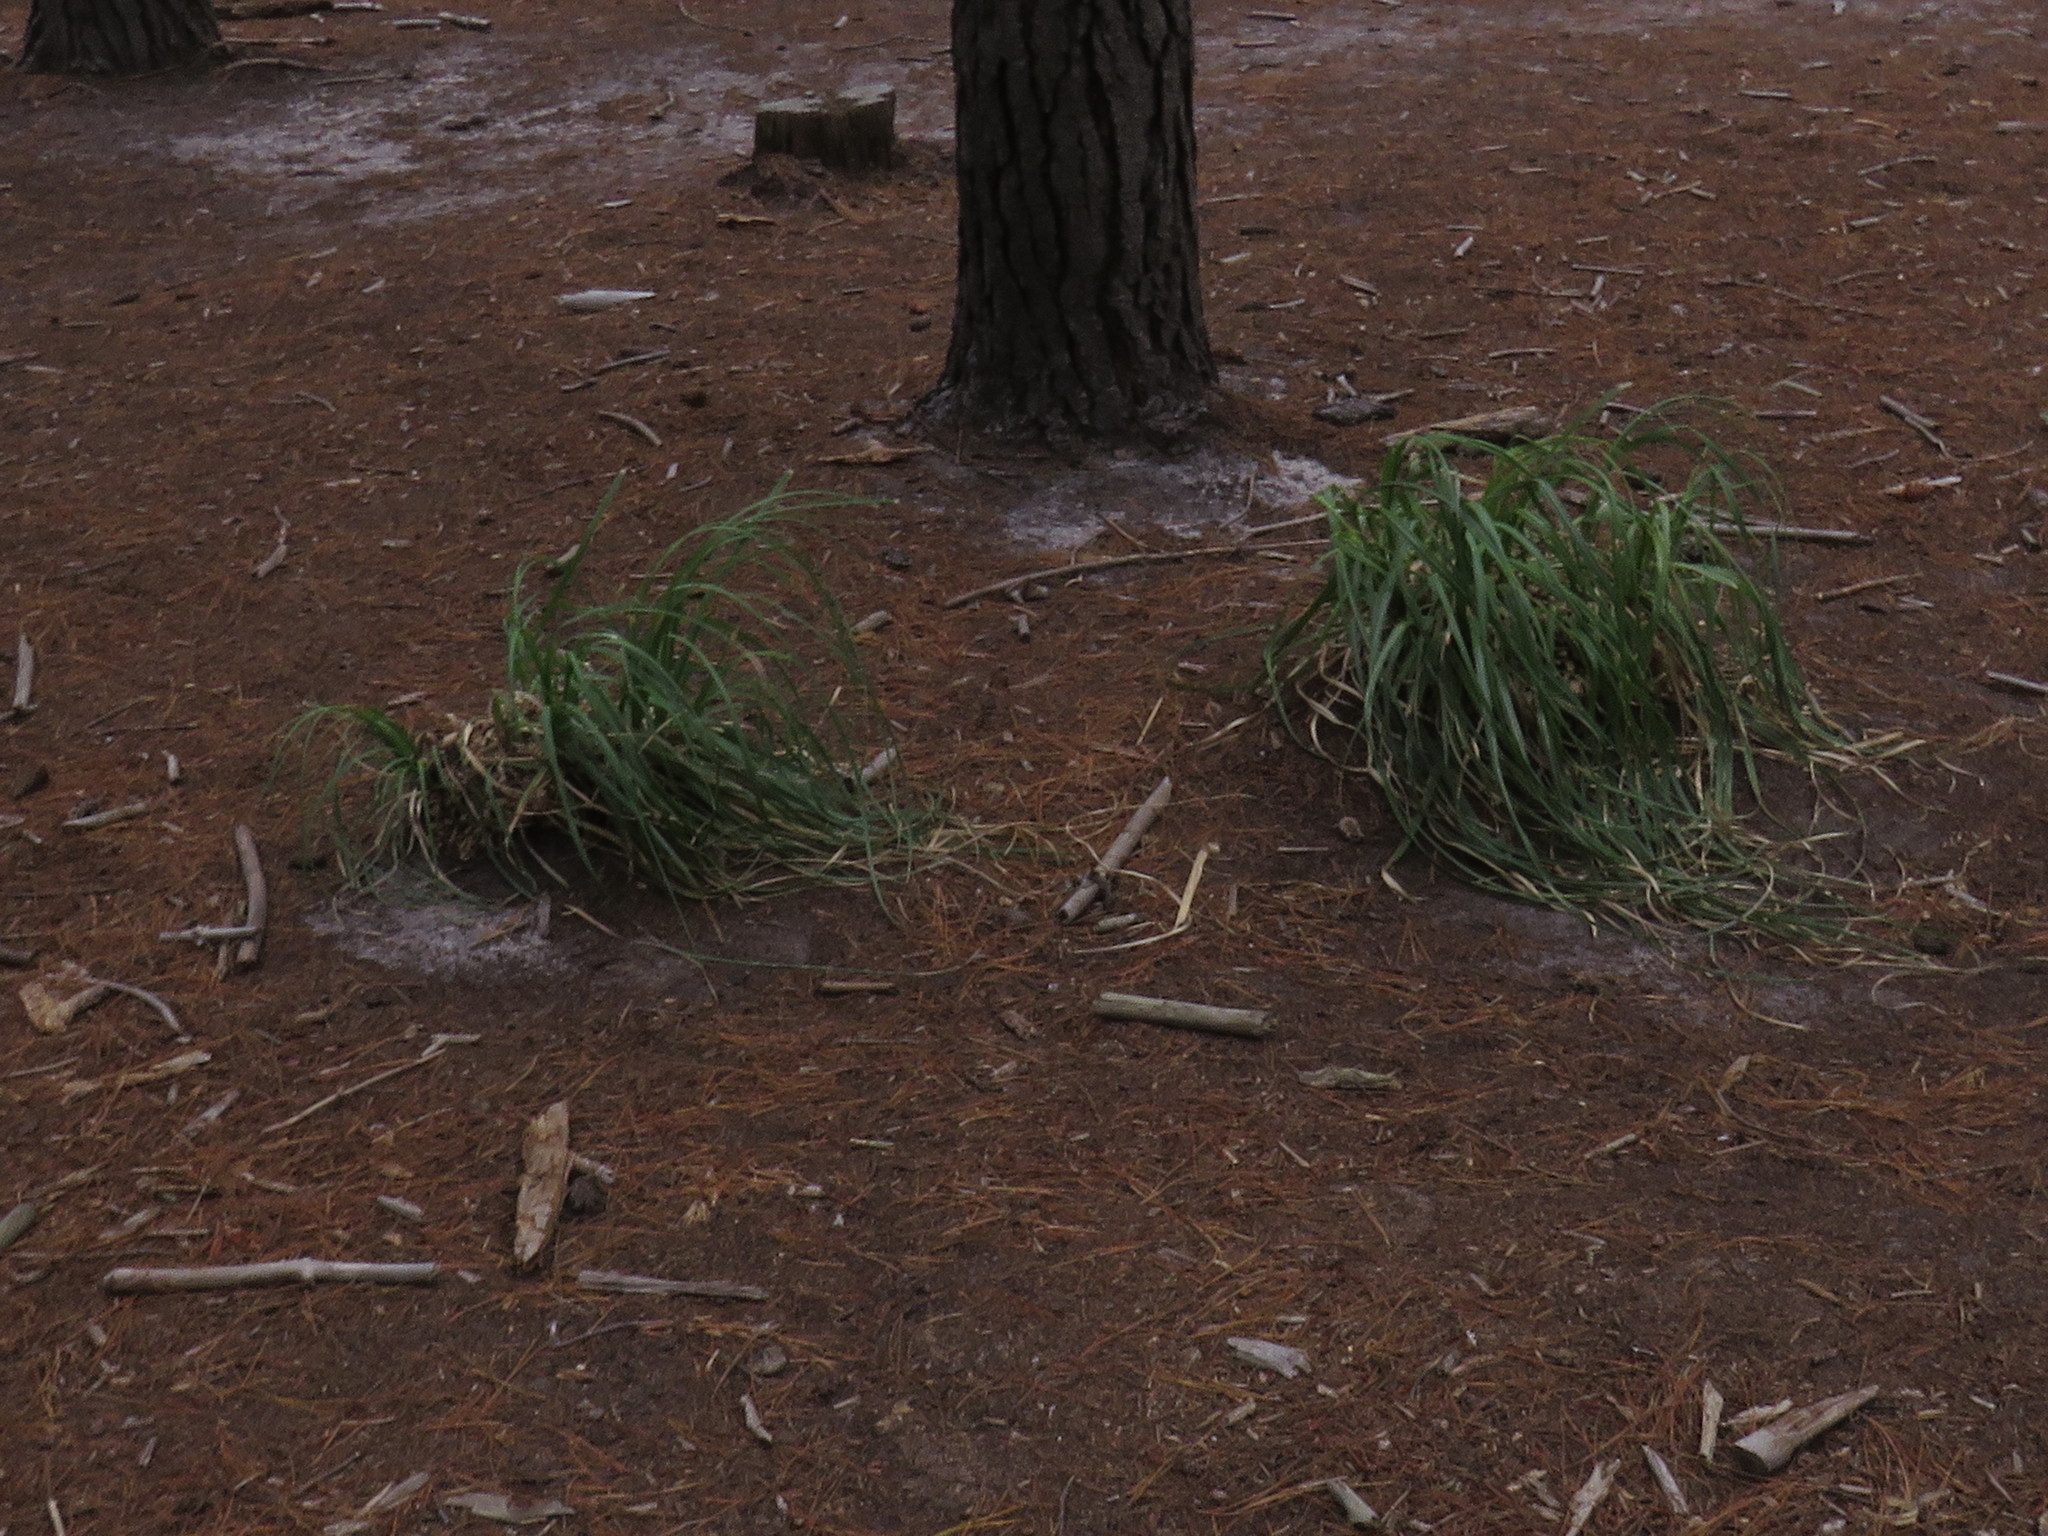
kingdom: Plantae
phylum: Tracheophyta
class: Liliopsida
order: Poales
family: Poaceae
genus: Cortaderia
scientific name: Cortaderia selloana
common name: Uruguayan pampas grass
